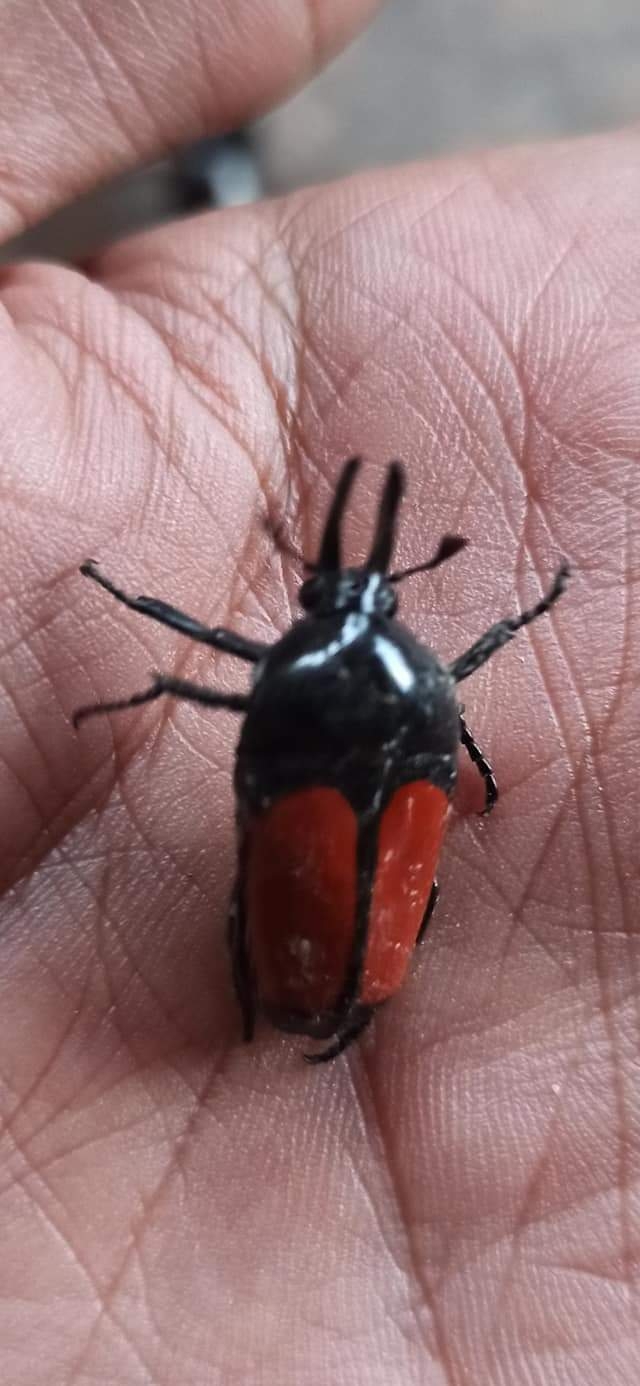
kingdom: Animalia
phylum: Arthropoda
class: Insecta
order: Coleoptera
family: Scarabaeidae
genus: Dicheros
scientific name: Dicheros bicornis
